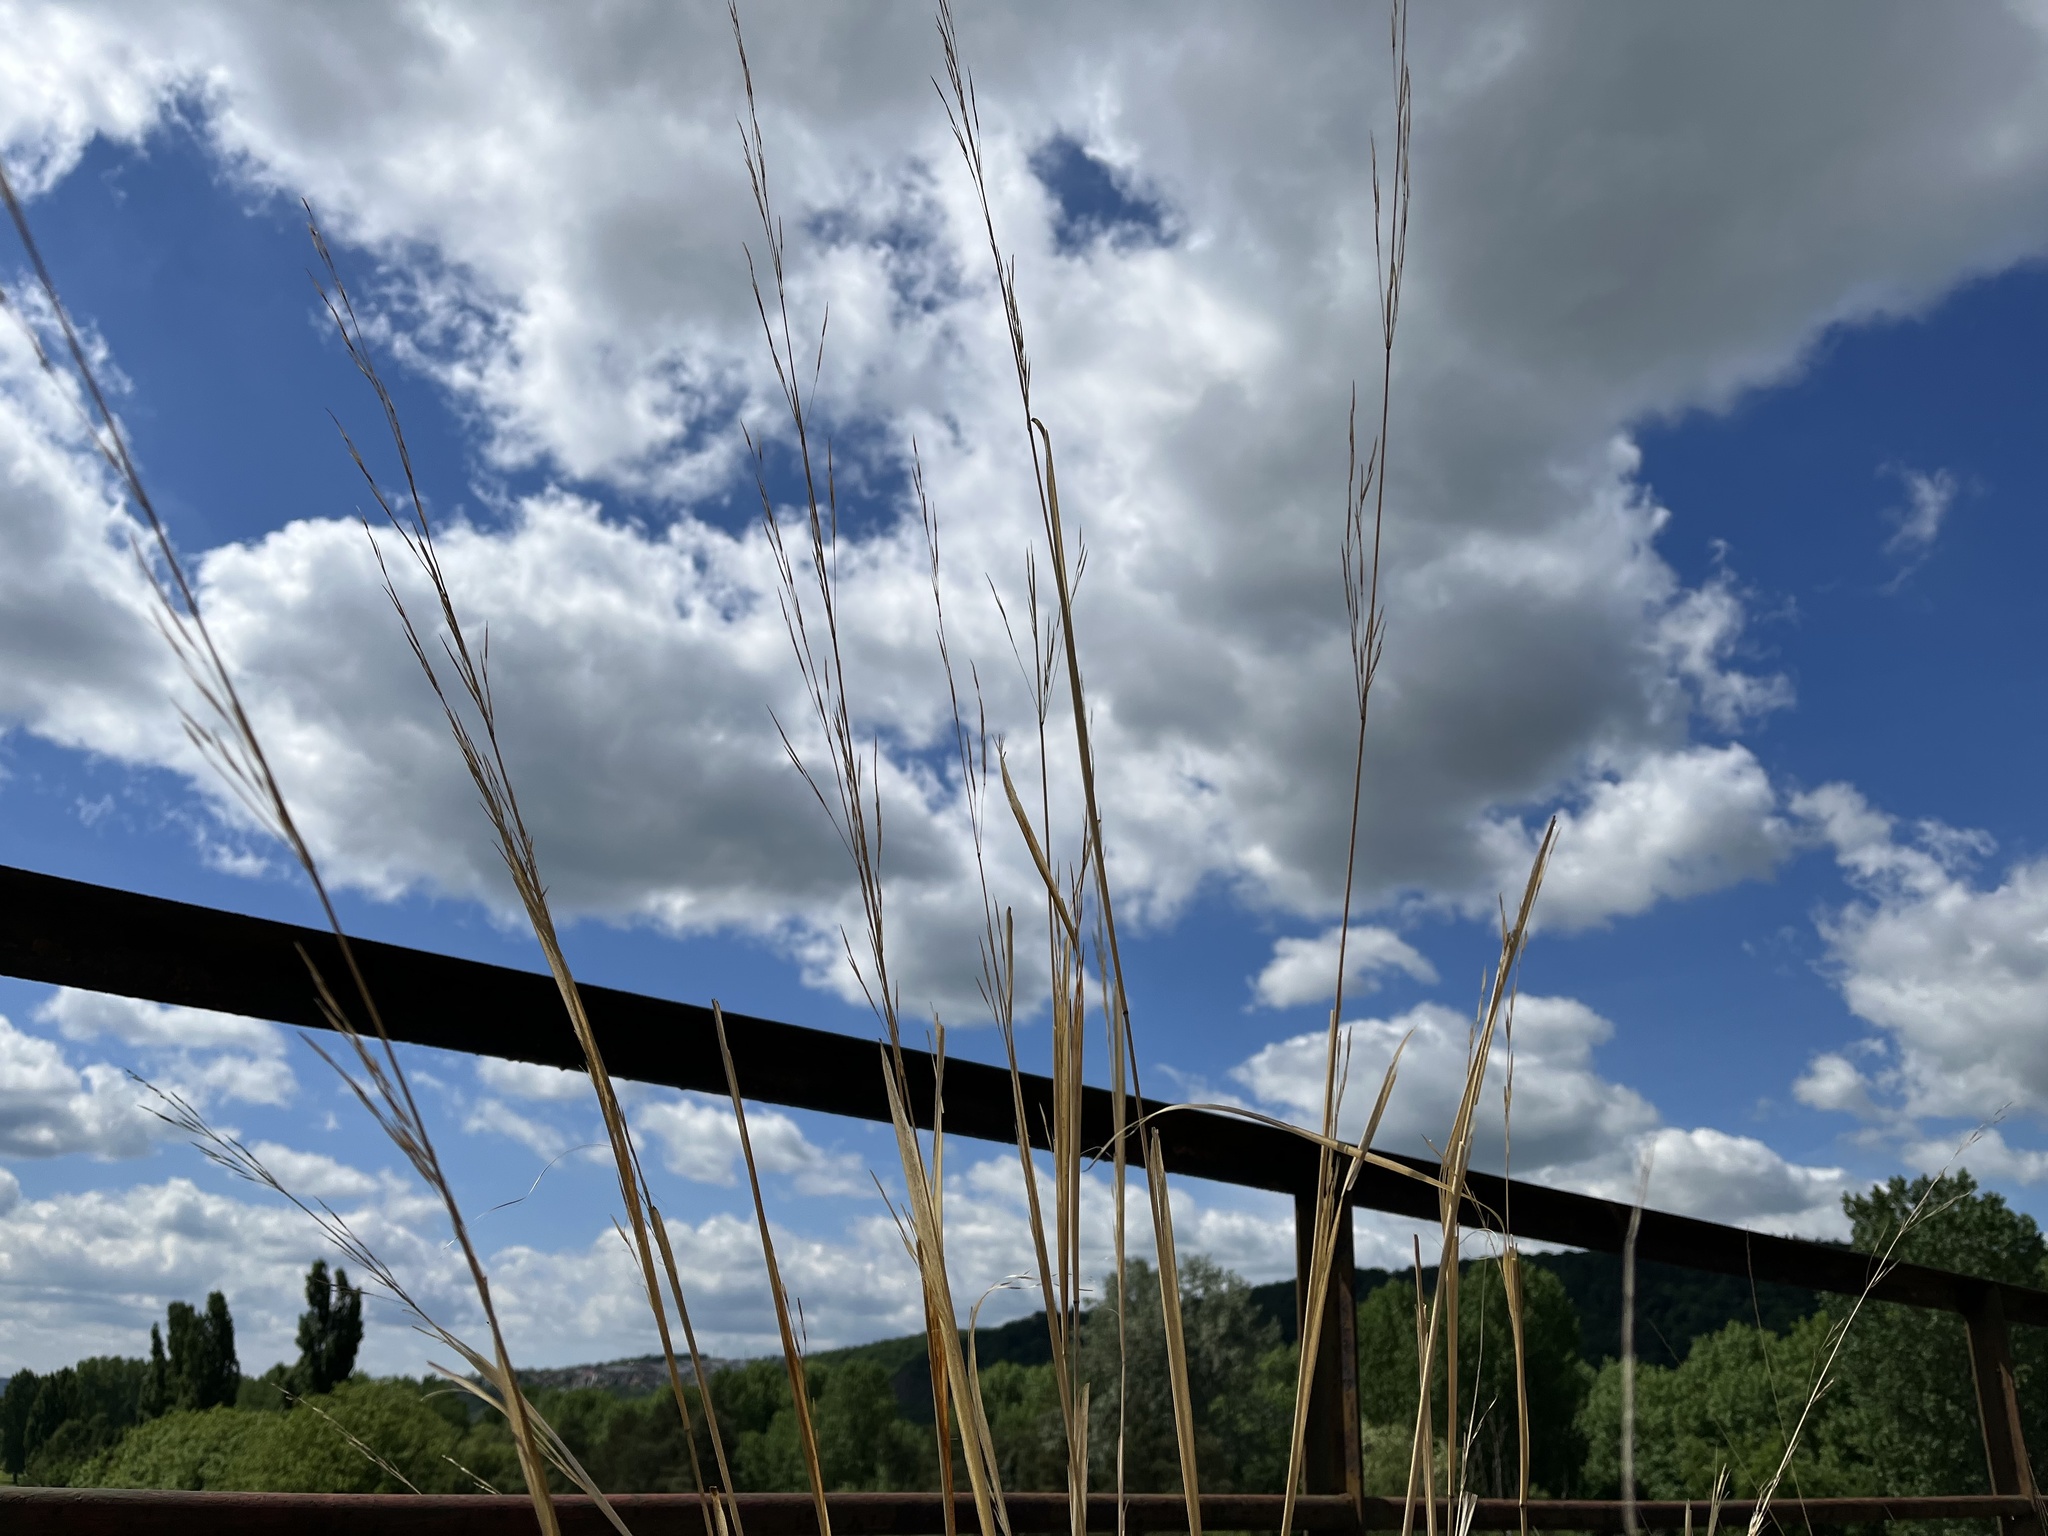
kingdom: Plantae
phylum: Tracheophyta
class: Liliopsida
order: Poales
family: Poaceae
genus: Stipa
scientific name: Stipa capillata
